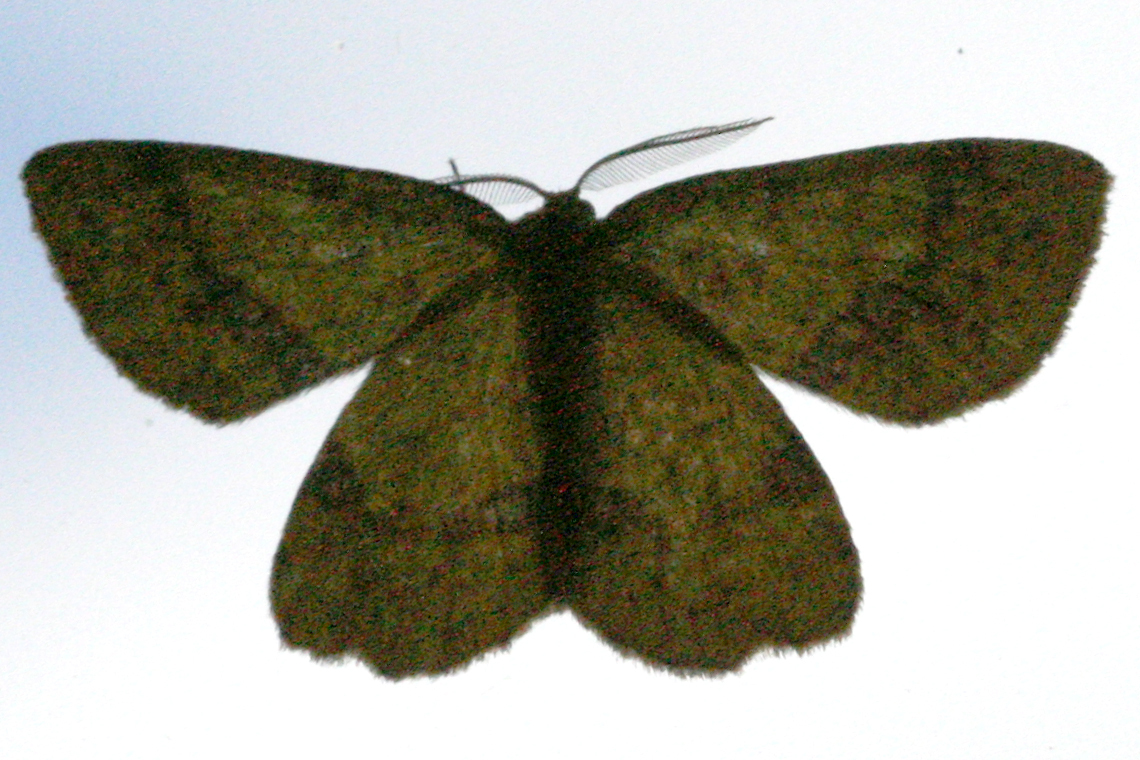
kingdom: Animalia
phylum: Arthropoda
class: Insecta
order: Lepidoptera
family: Geometridae
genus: Xanthotype
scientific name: Xanthotype
